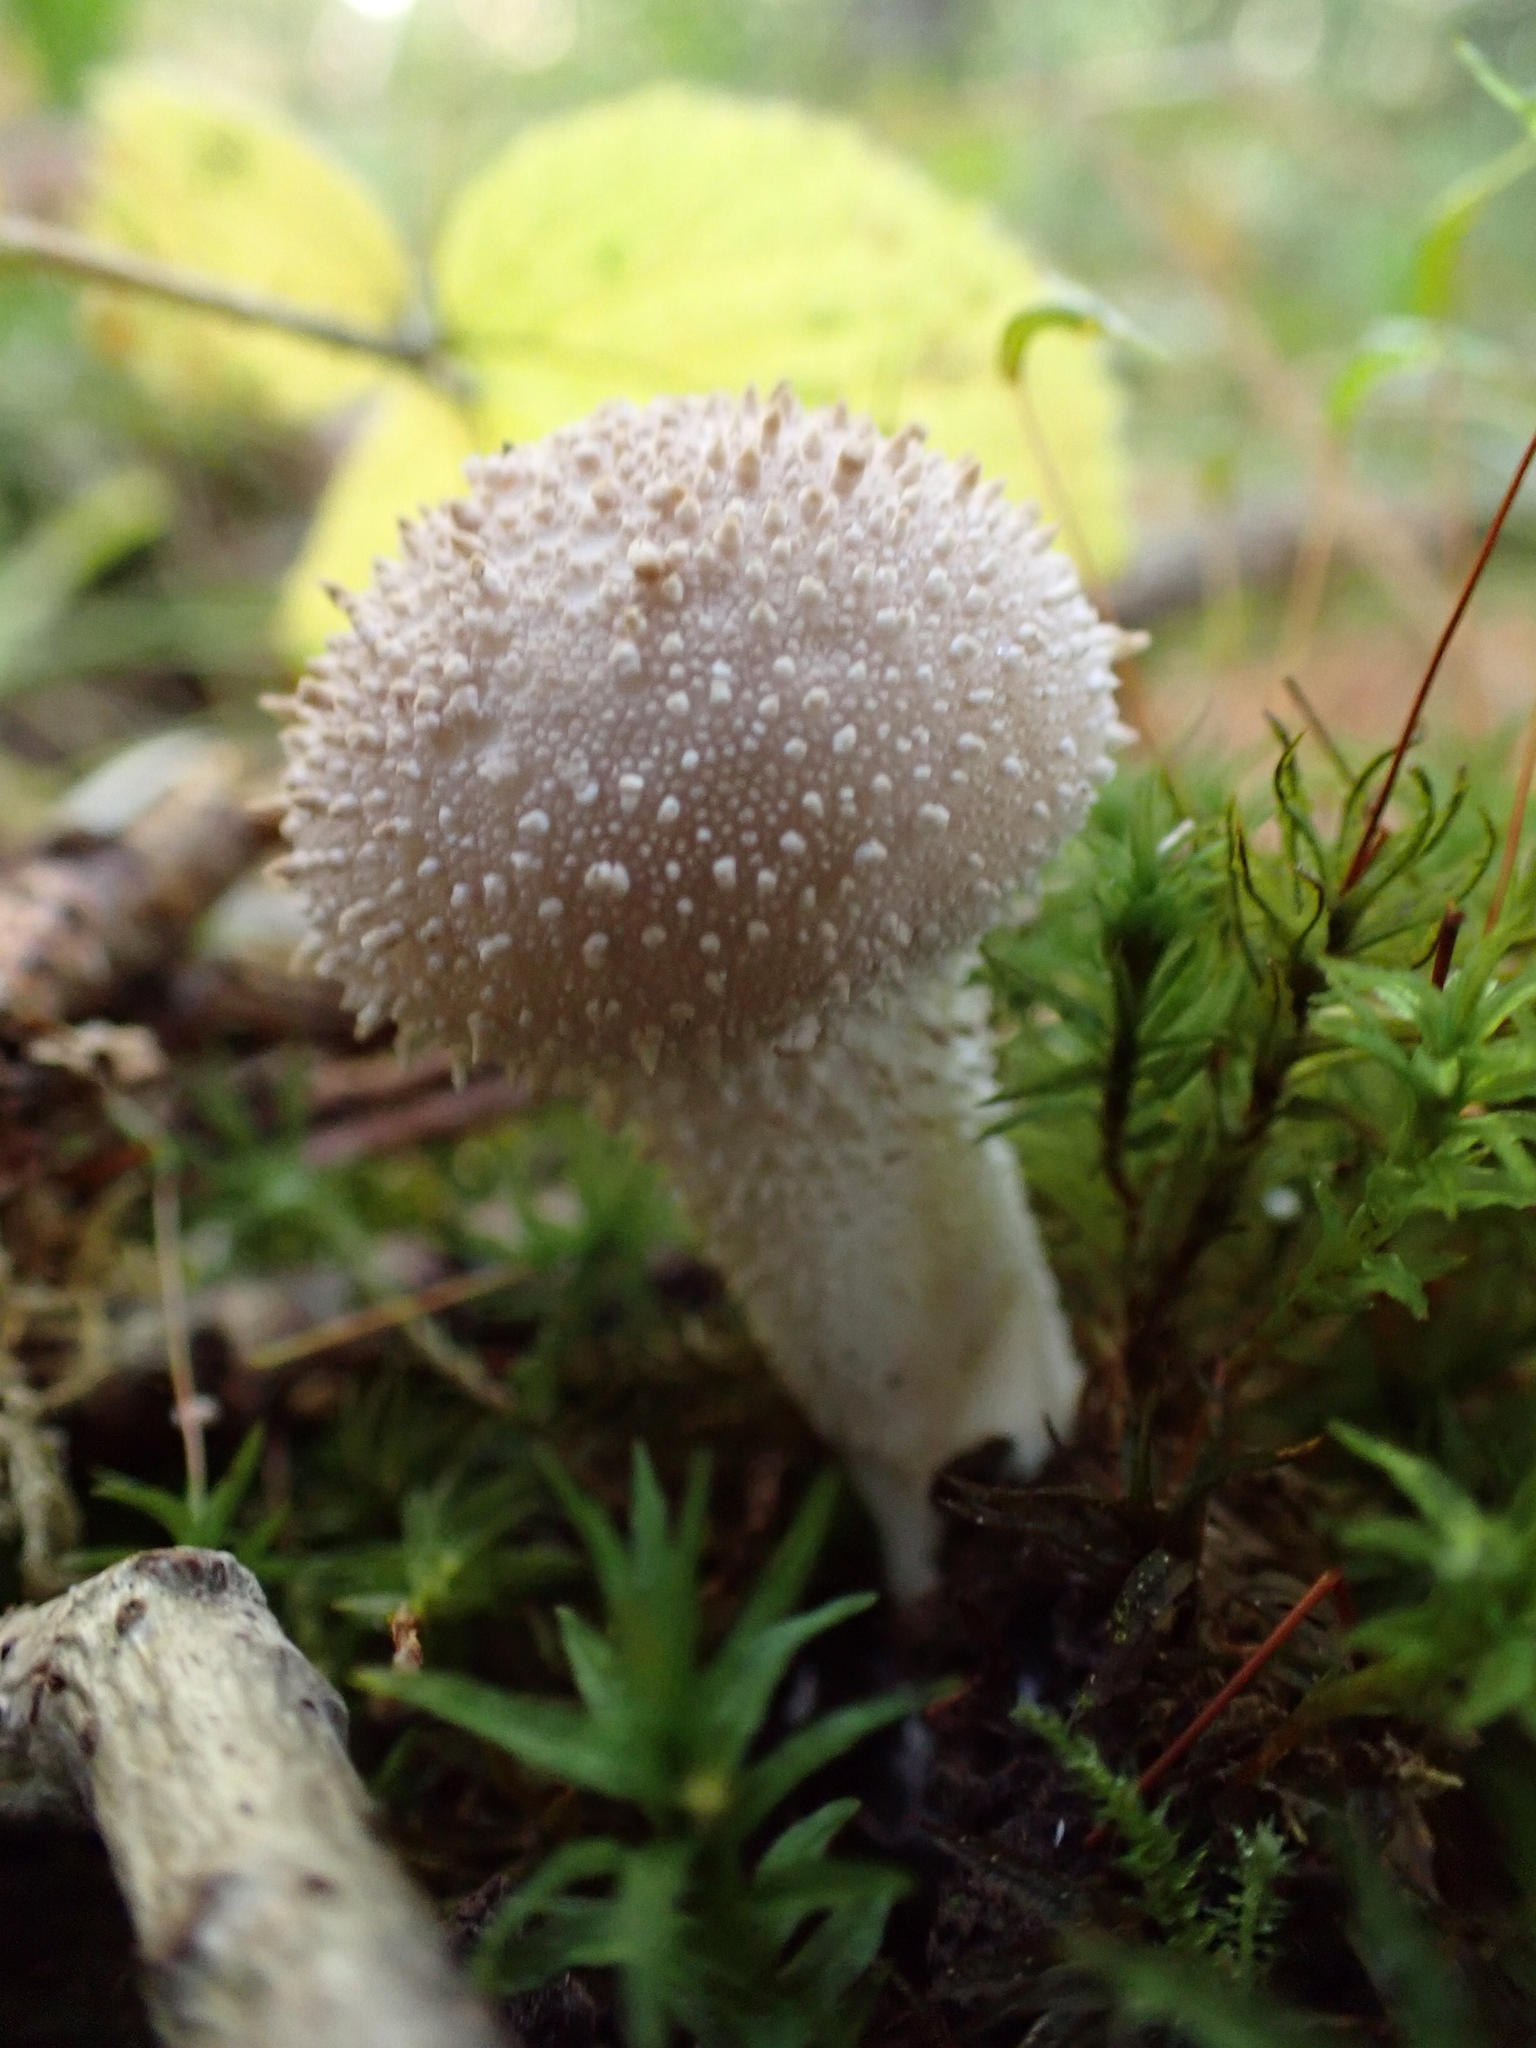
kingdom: Fungi
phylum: Basidiomycota
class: Agaricomycetes
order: Agaricales
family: Lycoperdaceae
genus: Lycoperdon
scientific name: Lycoperdon perlatum
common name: Common puffball
